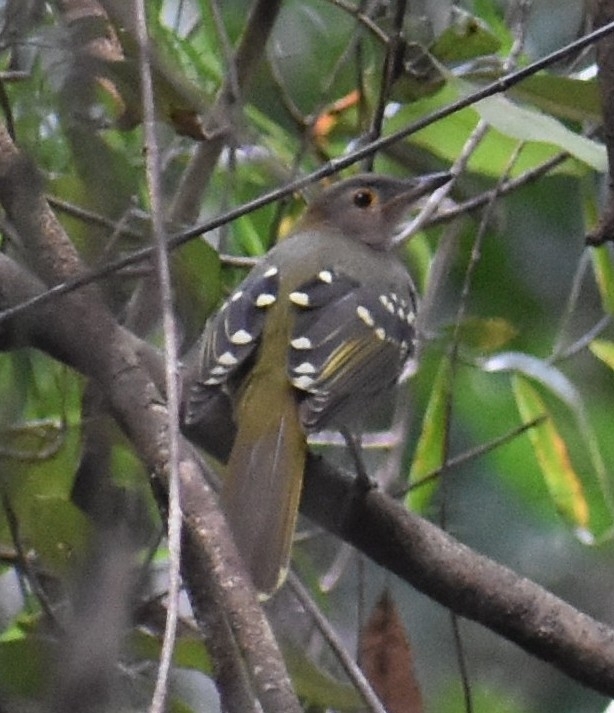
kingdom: Animalia
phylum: Chordata
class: Aves
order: Passeriformes
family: Nicatoridae
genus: Nicator
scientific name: Nicator gularis
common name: Eastern nicator
